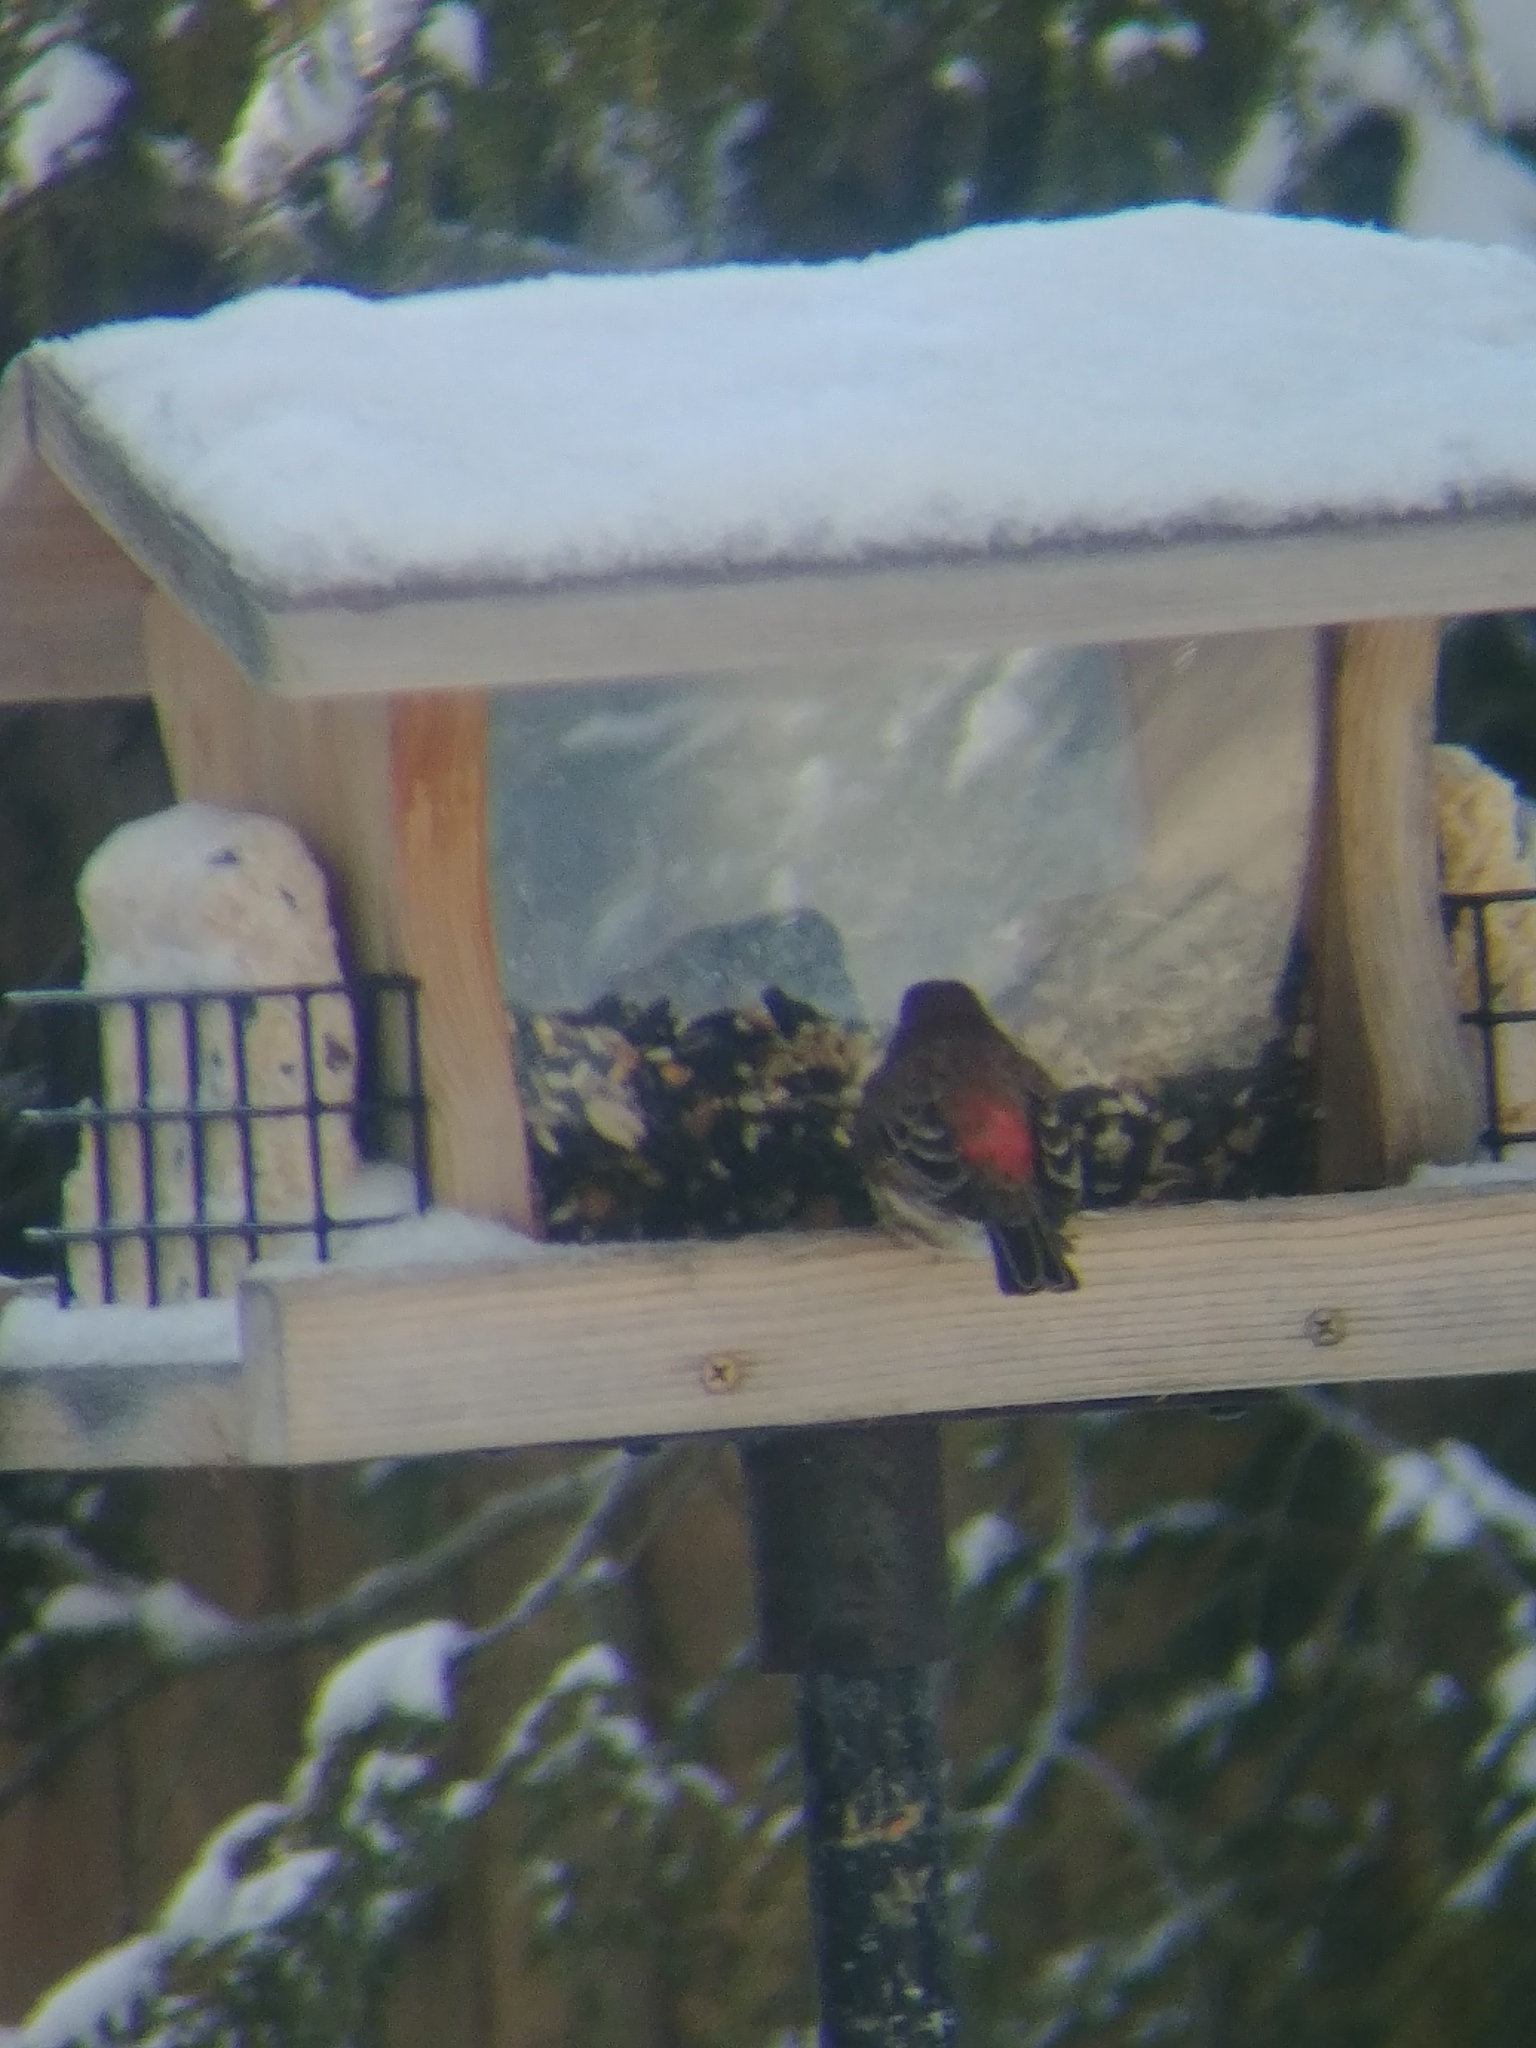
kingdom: Animalia
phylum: Chordata
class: Aves
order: Passeriformes
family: Fringillidae
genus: Haemorhous
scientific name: Haemorhous mexicanus
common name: House finch
